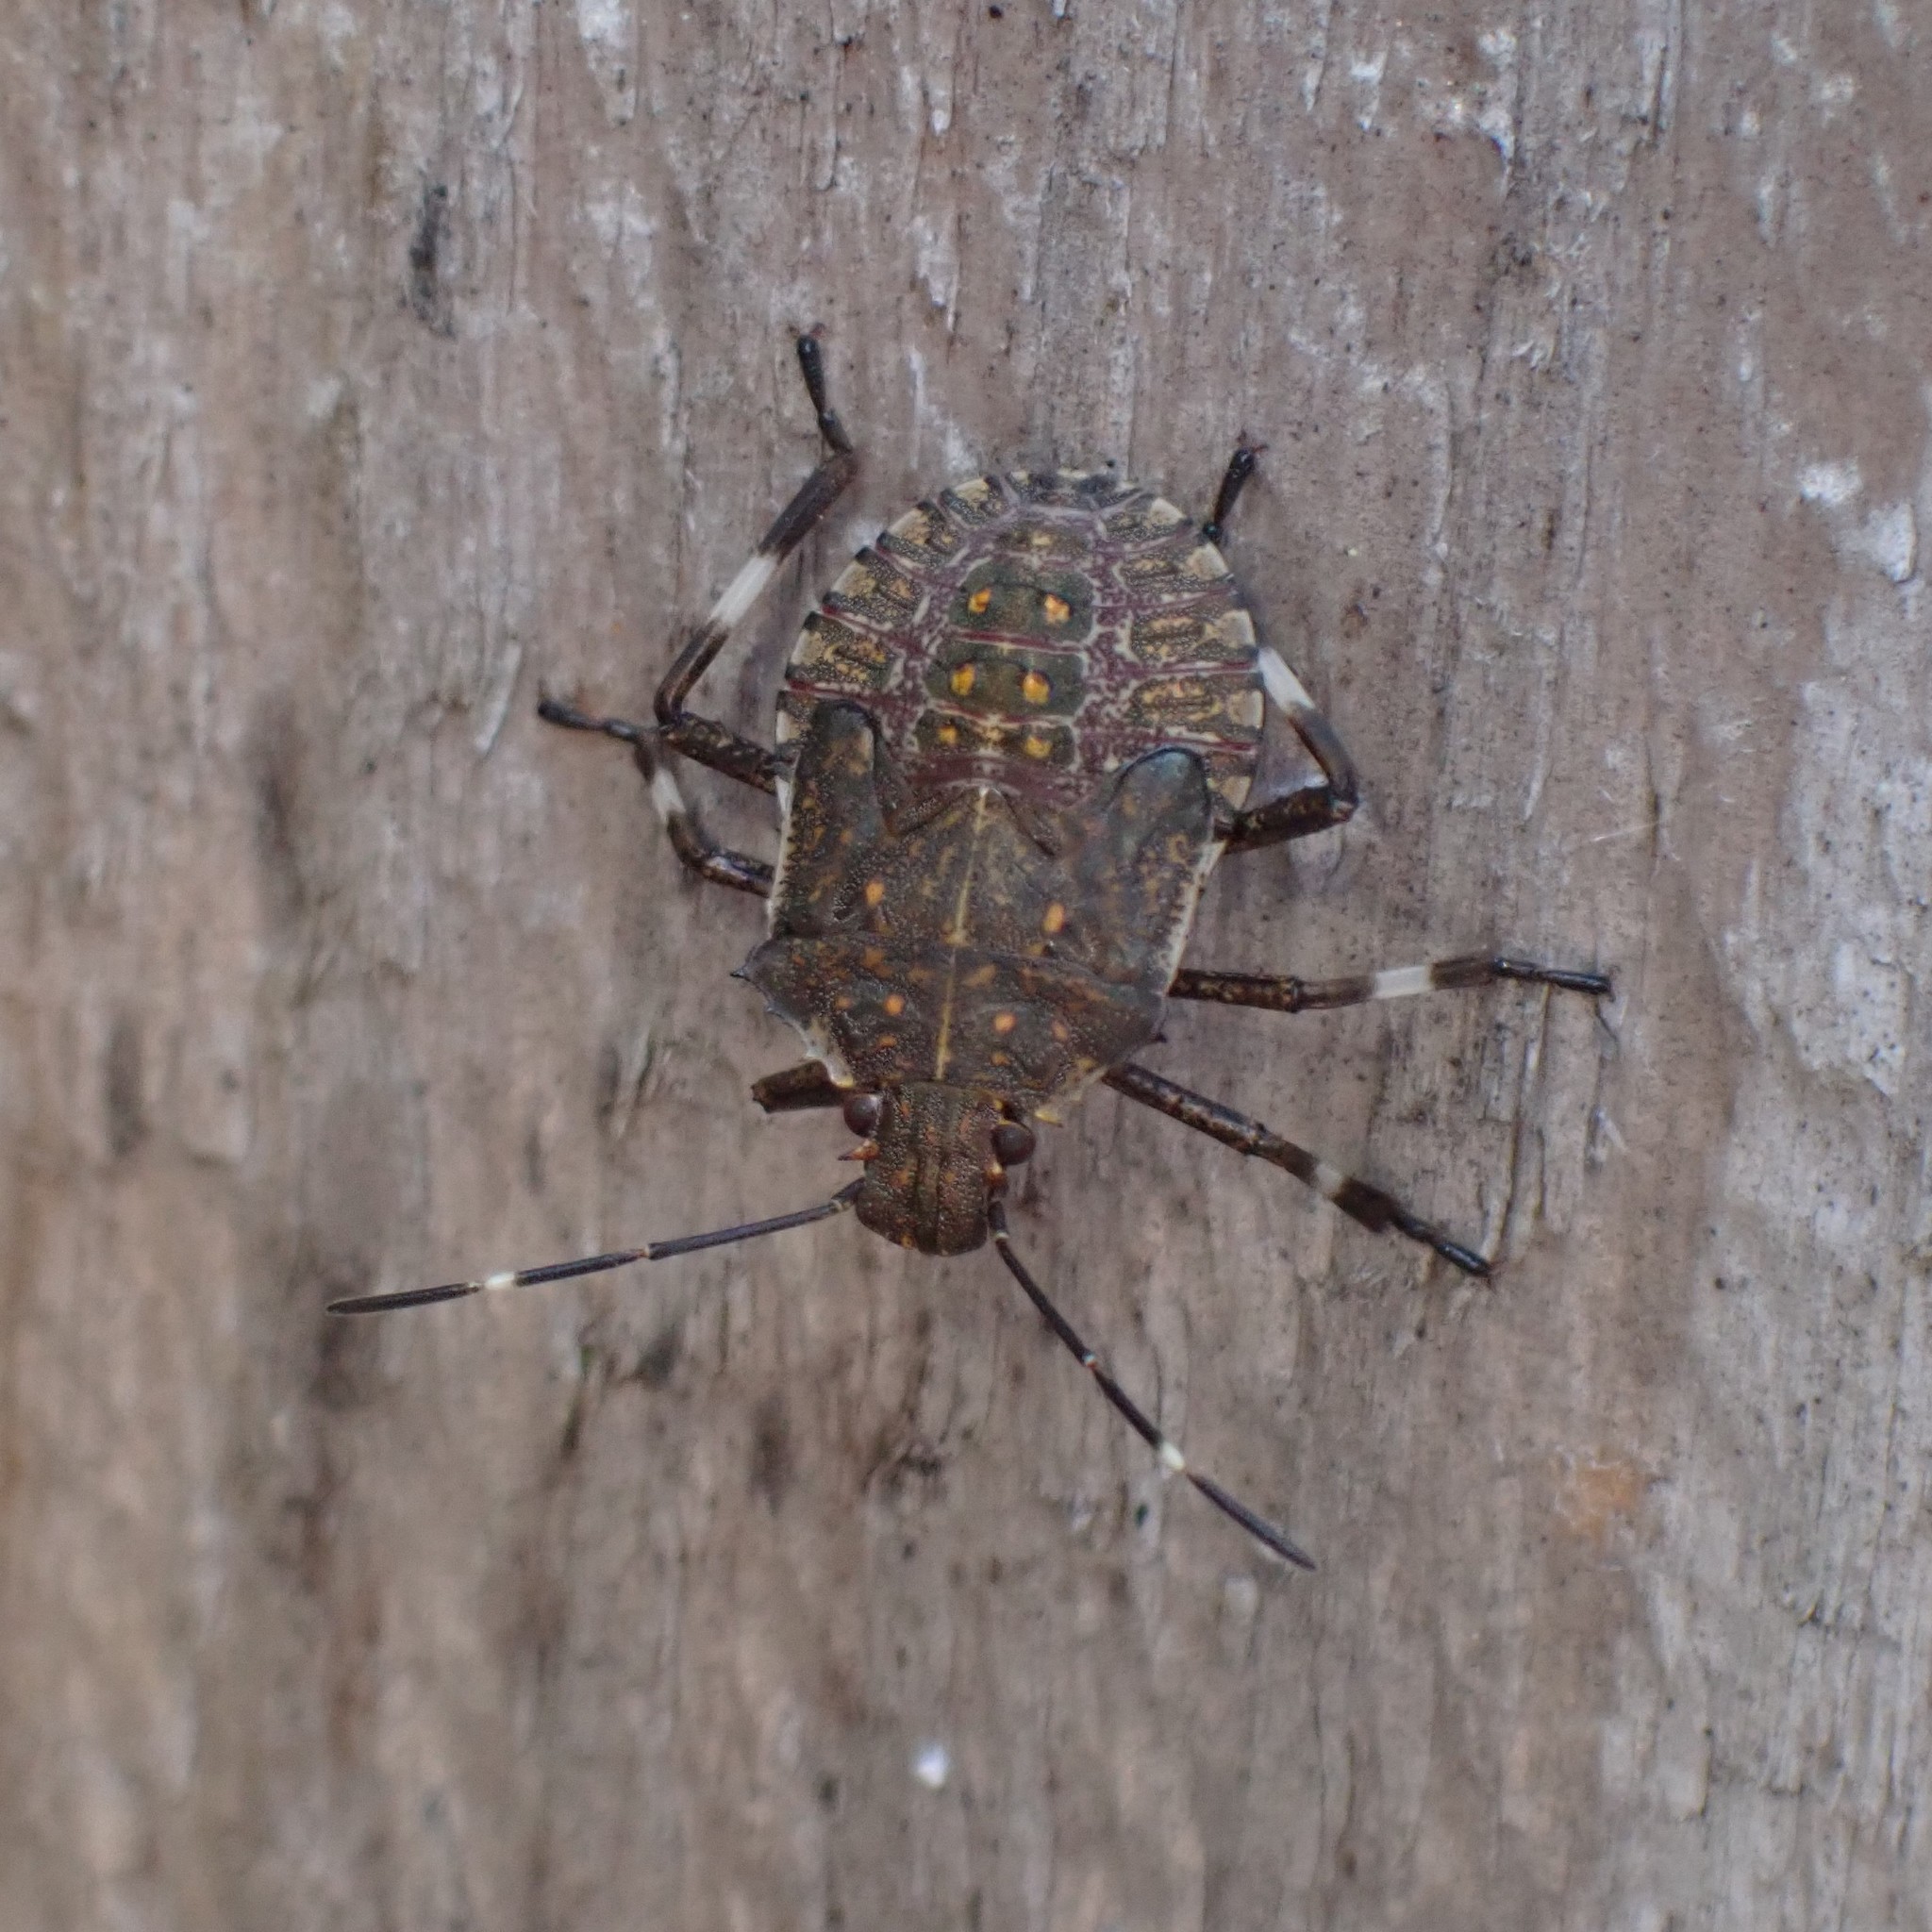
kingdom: Animalia
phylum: Arthropoda
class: Insecta
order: Hemiptera
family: Pentatomidae
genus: Halyomorpha
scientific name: Halyomorpha halys
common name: Brown marmorated stink bug
